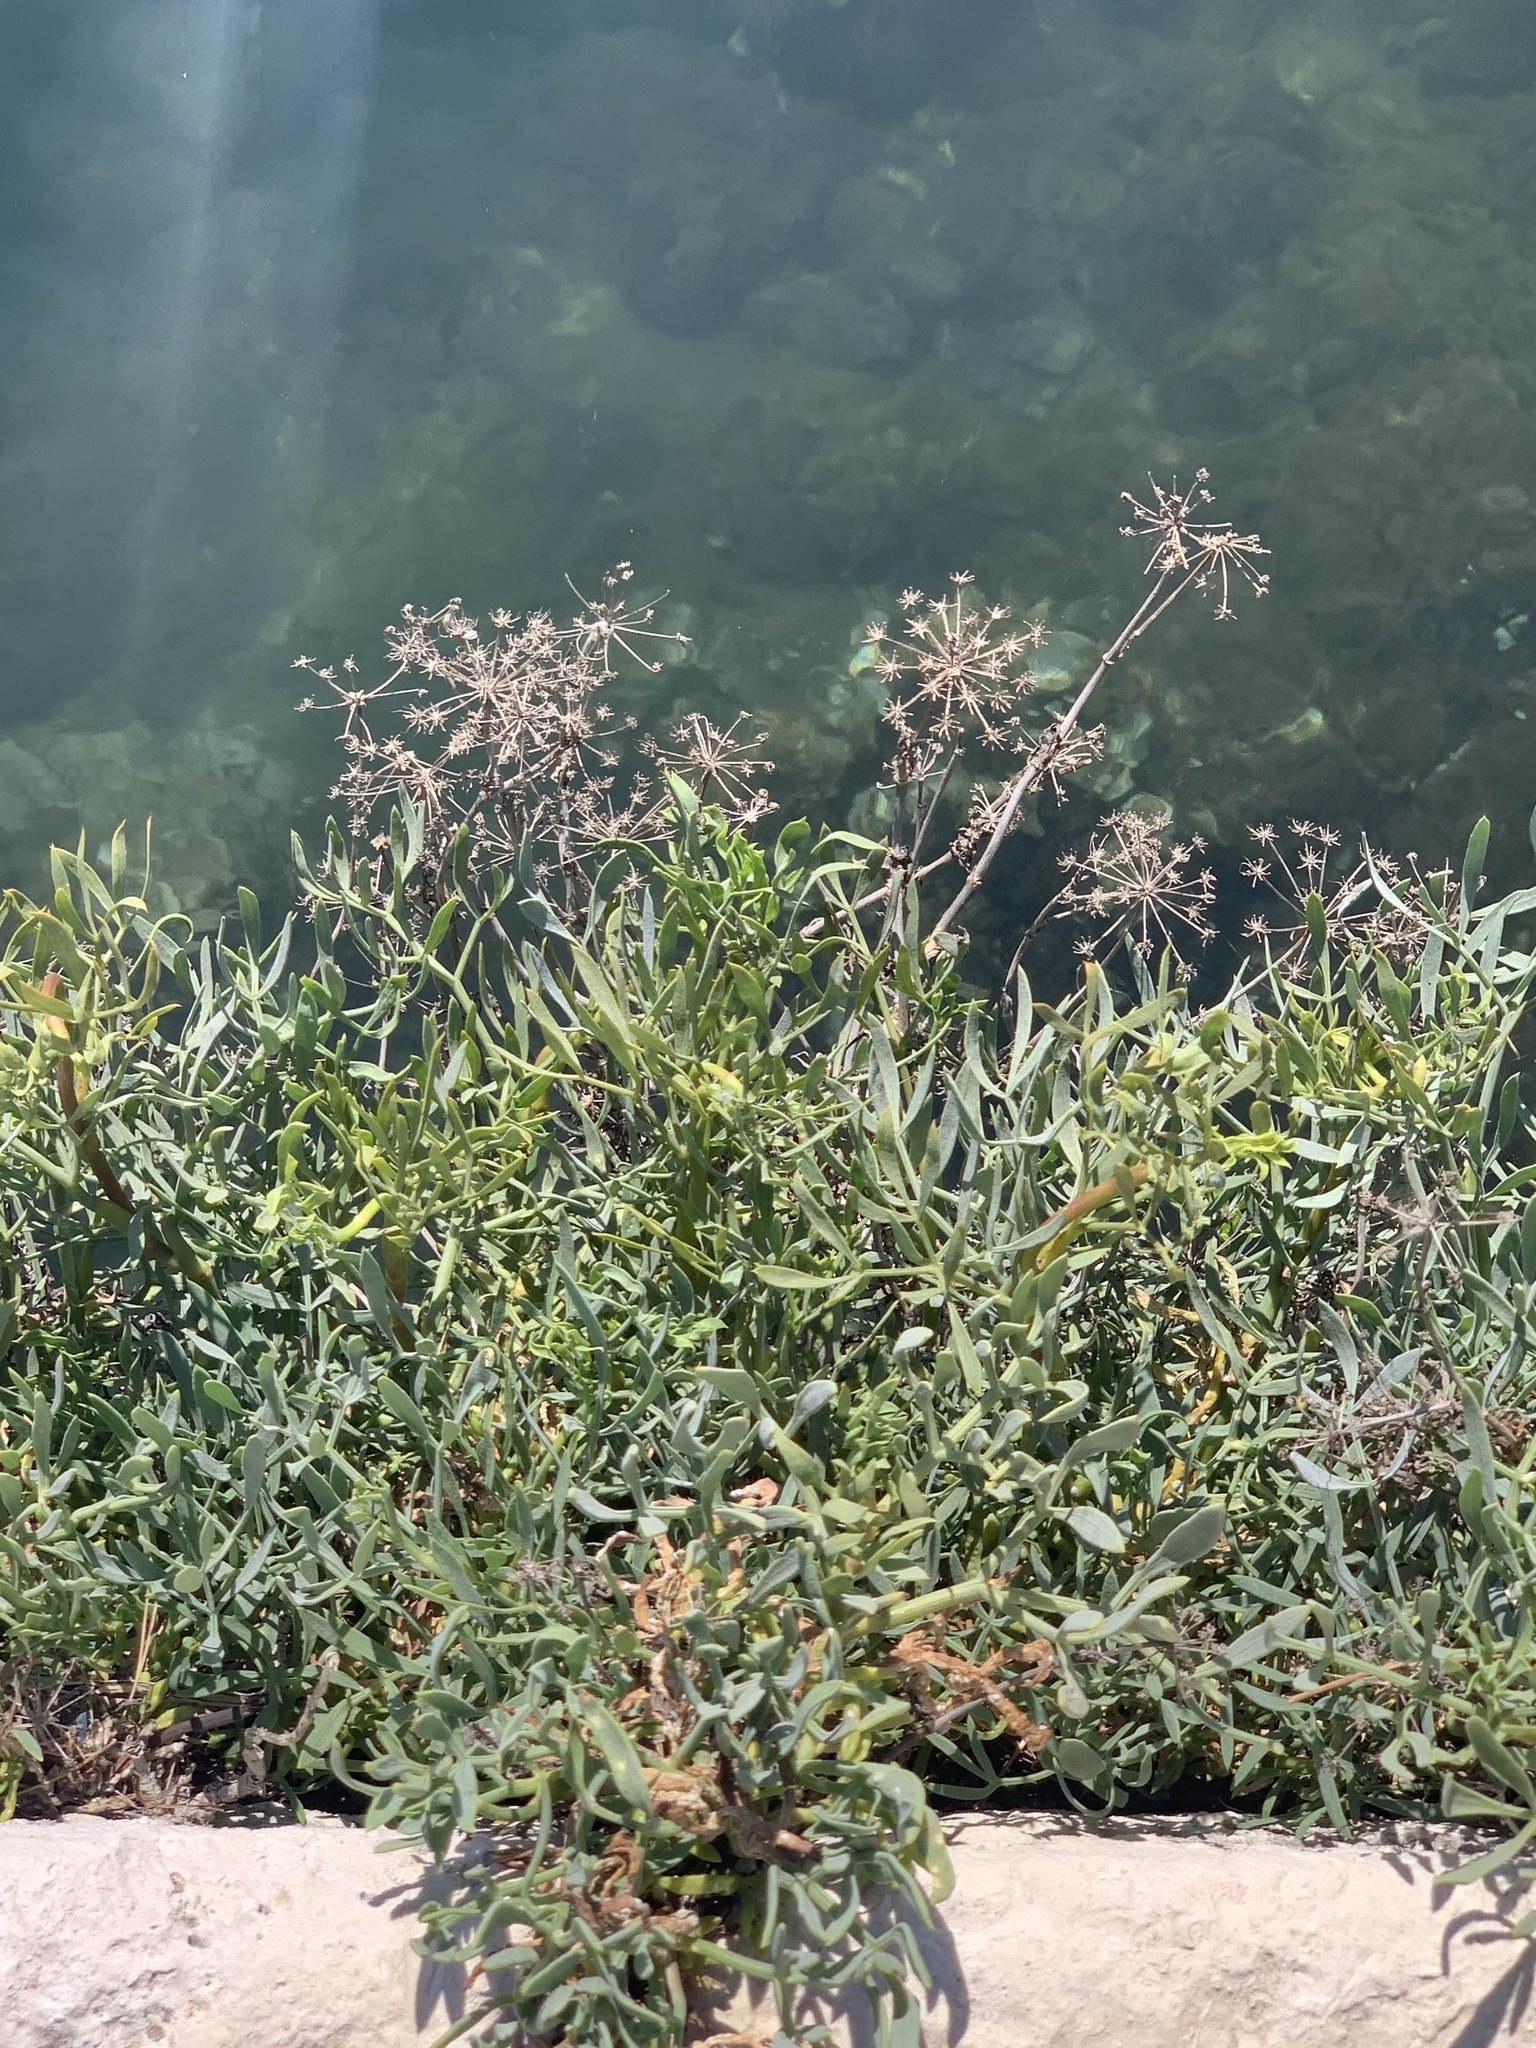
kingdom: Plantae
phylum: Tracheophyta
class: Magnoliopsida
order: Apiales
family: Apiaceae
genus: Crithmum
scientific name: Crithmum maritimum
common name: Rock samphire
